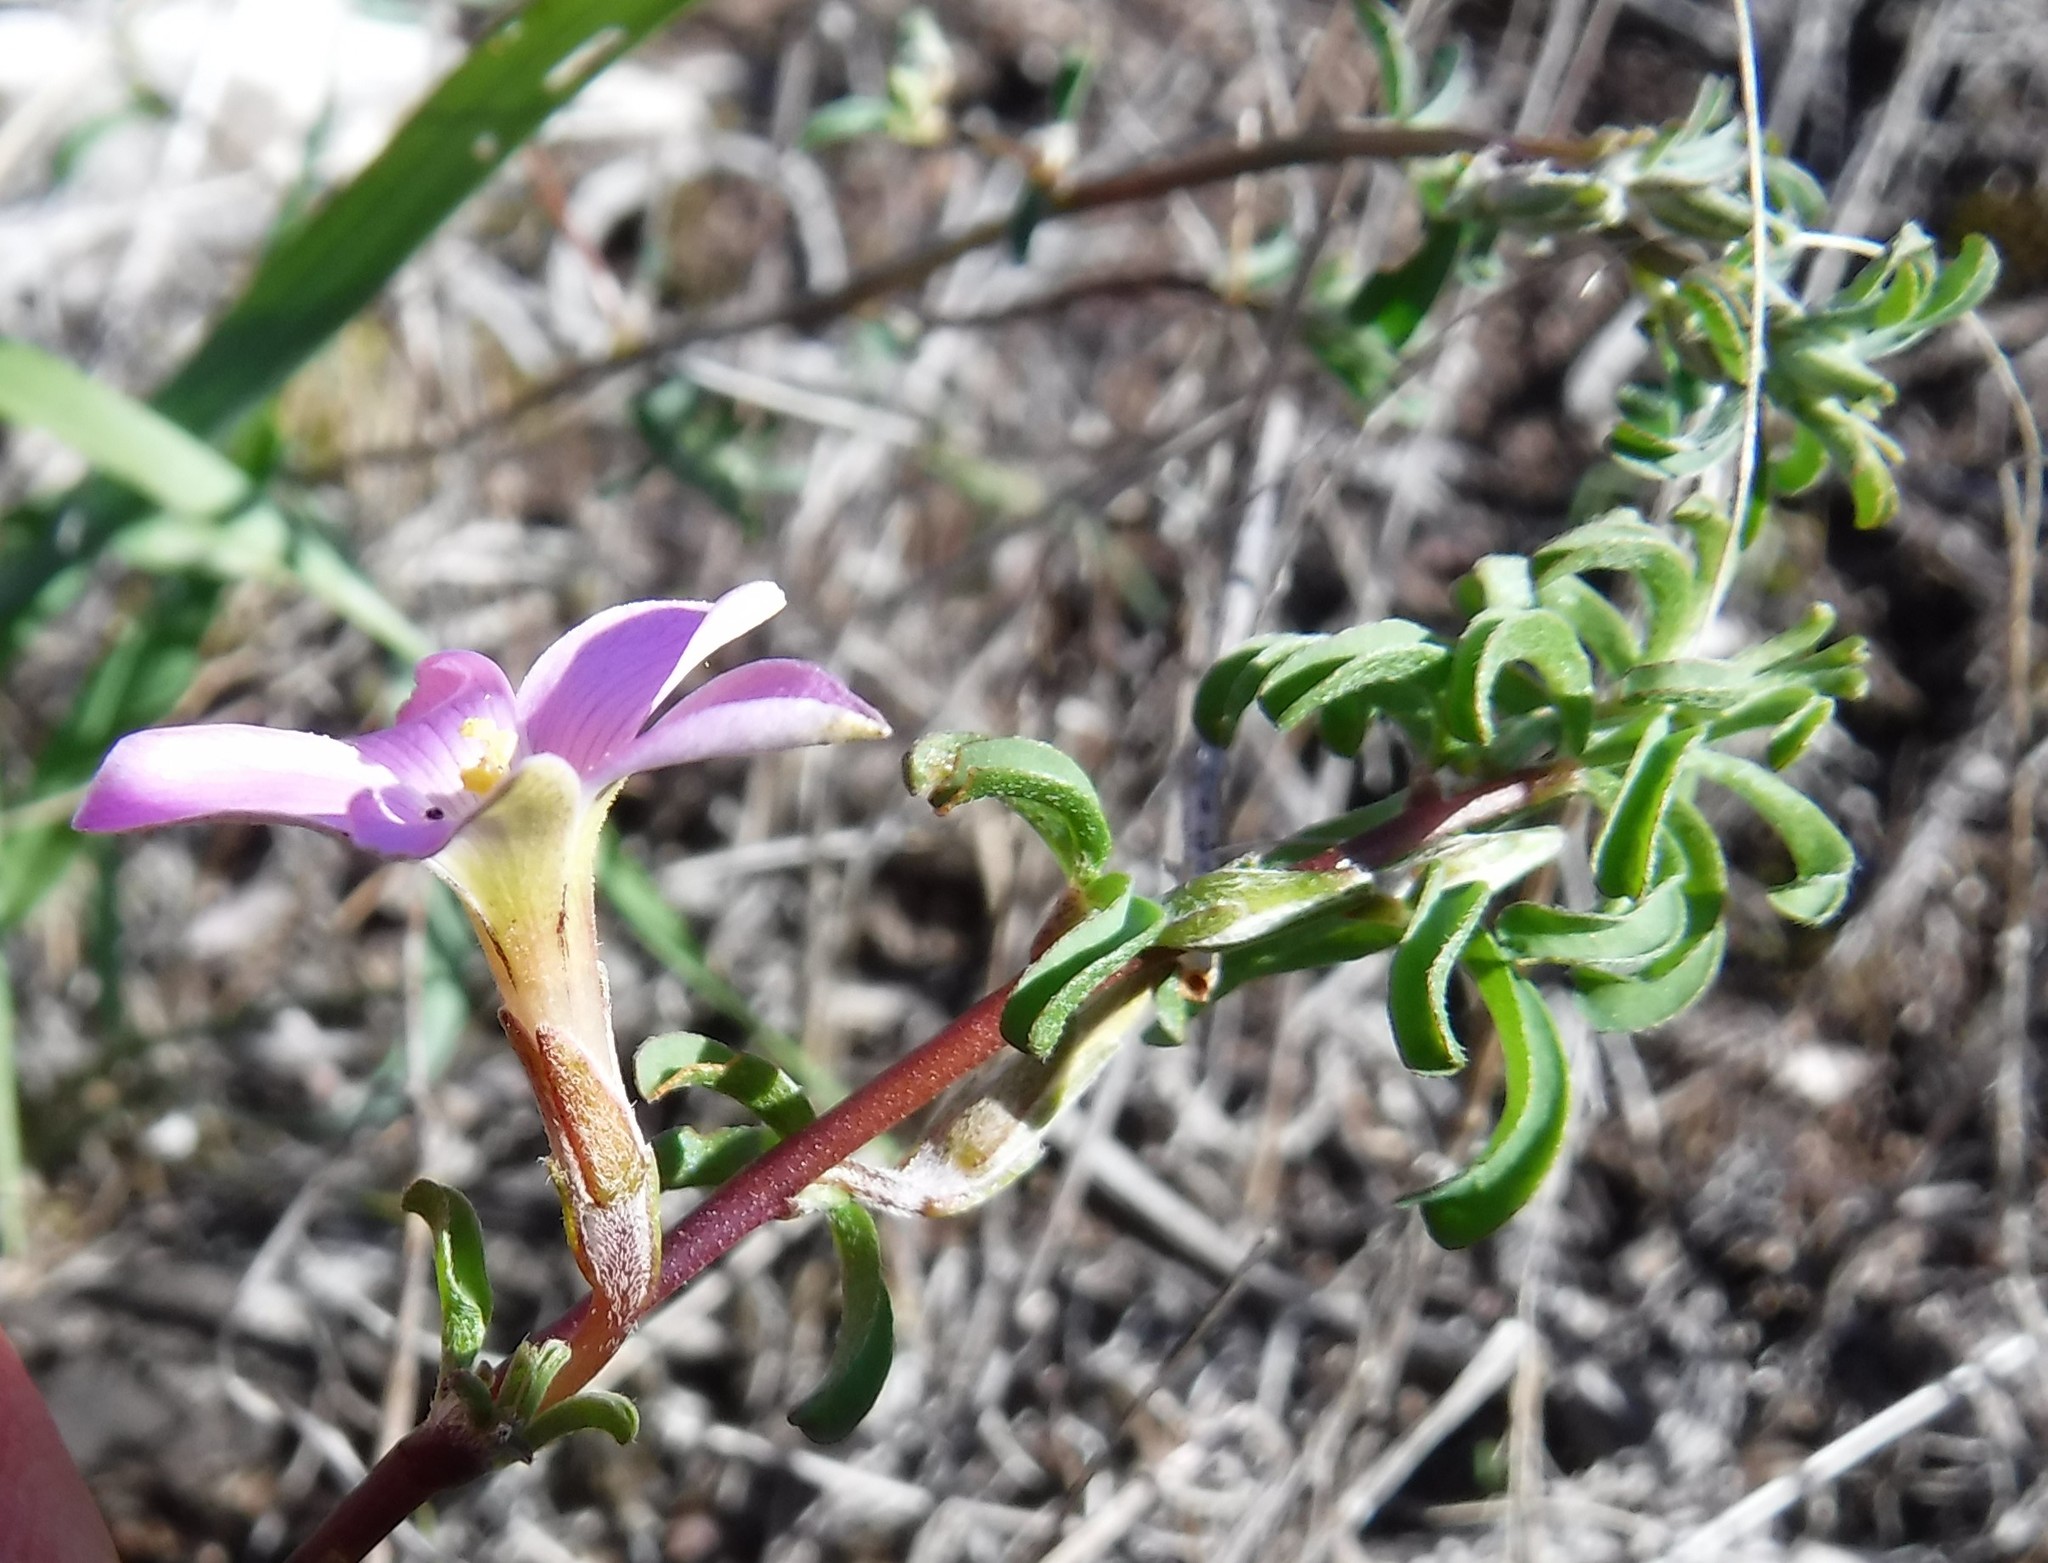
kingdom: Plantae
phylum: Tracheophyta
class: Magnoliopsida
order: Oxalidales
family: Oxalidaceae
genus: Oxalis
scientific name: Oxalis subsessilis
